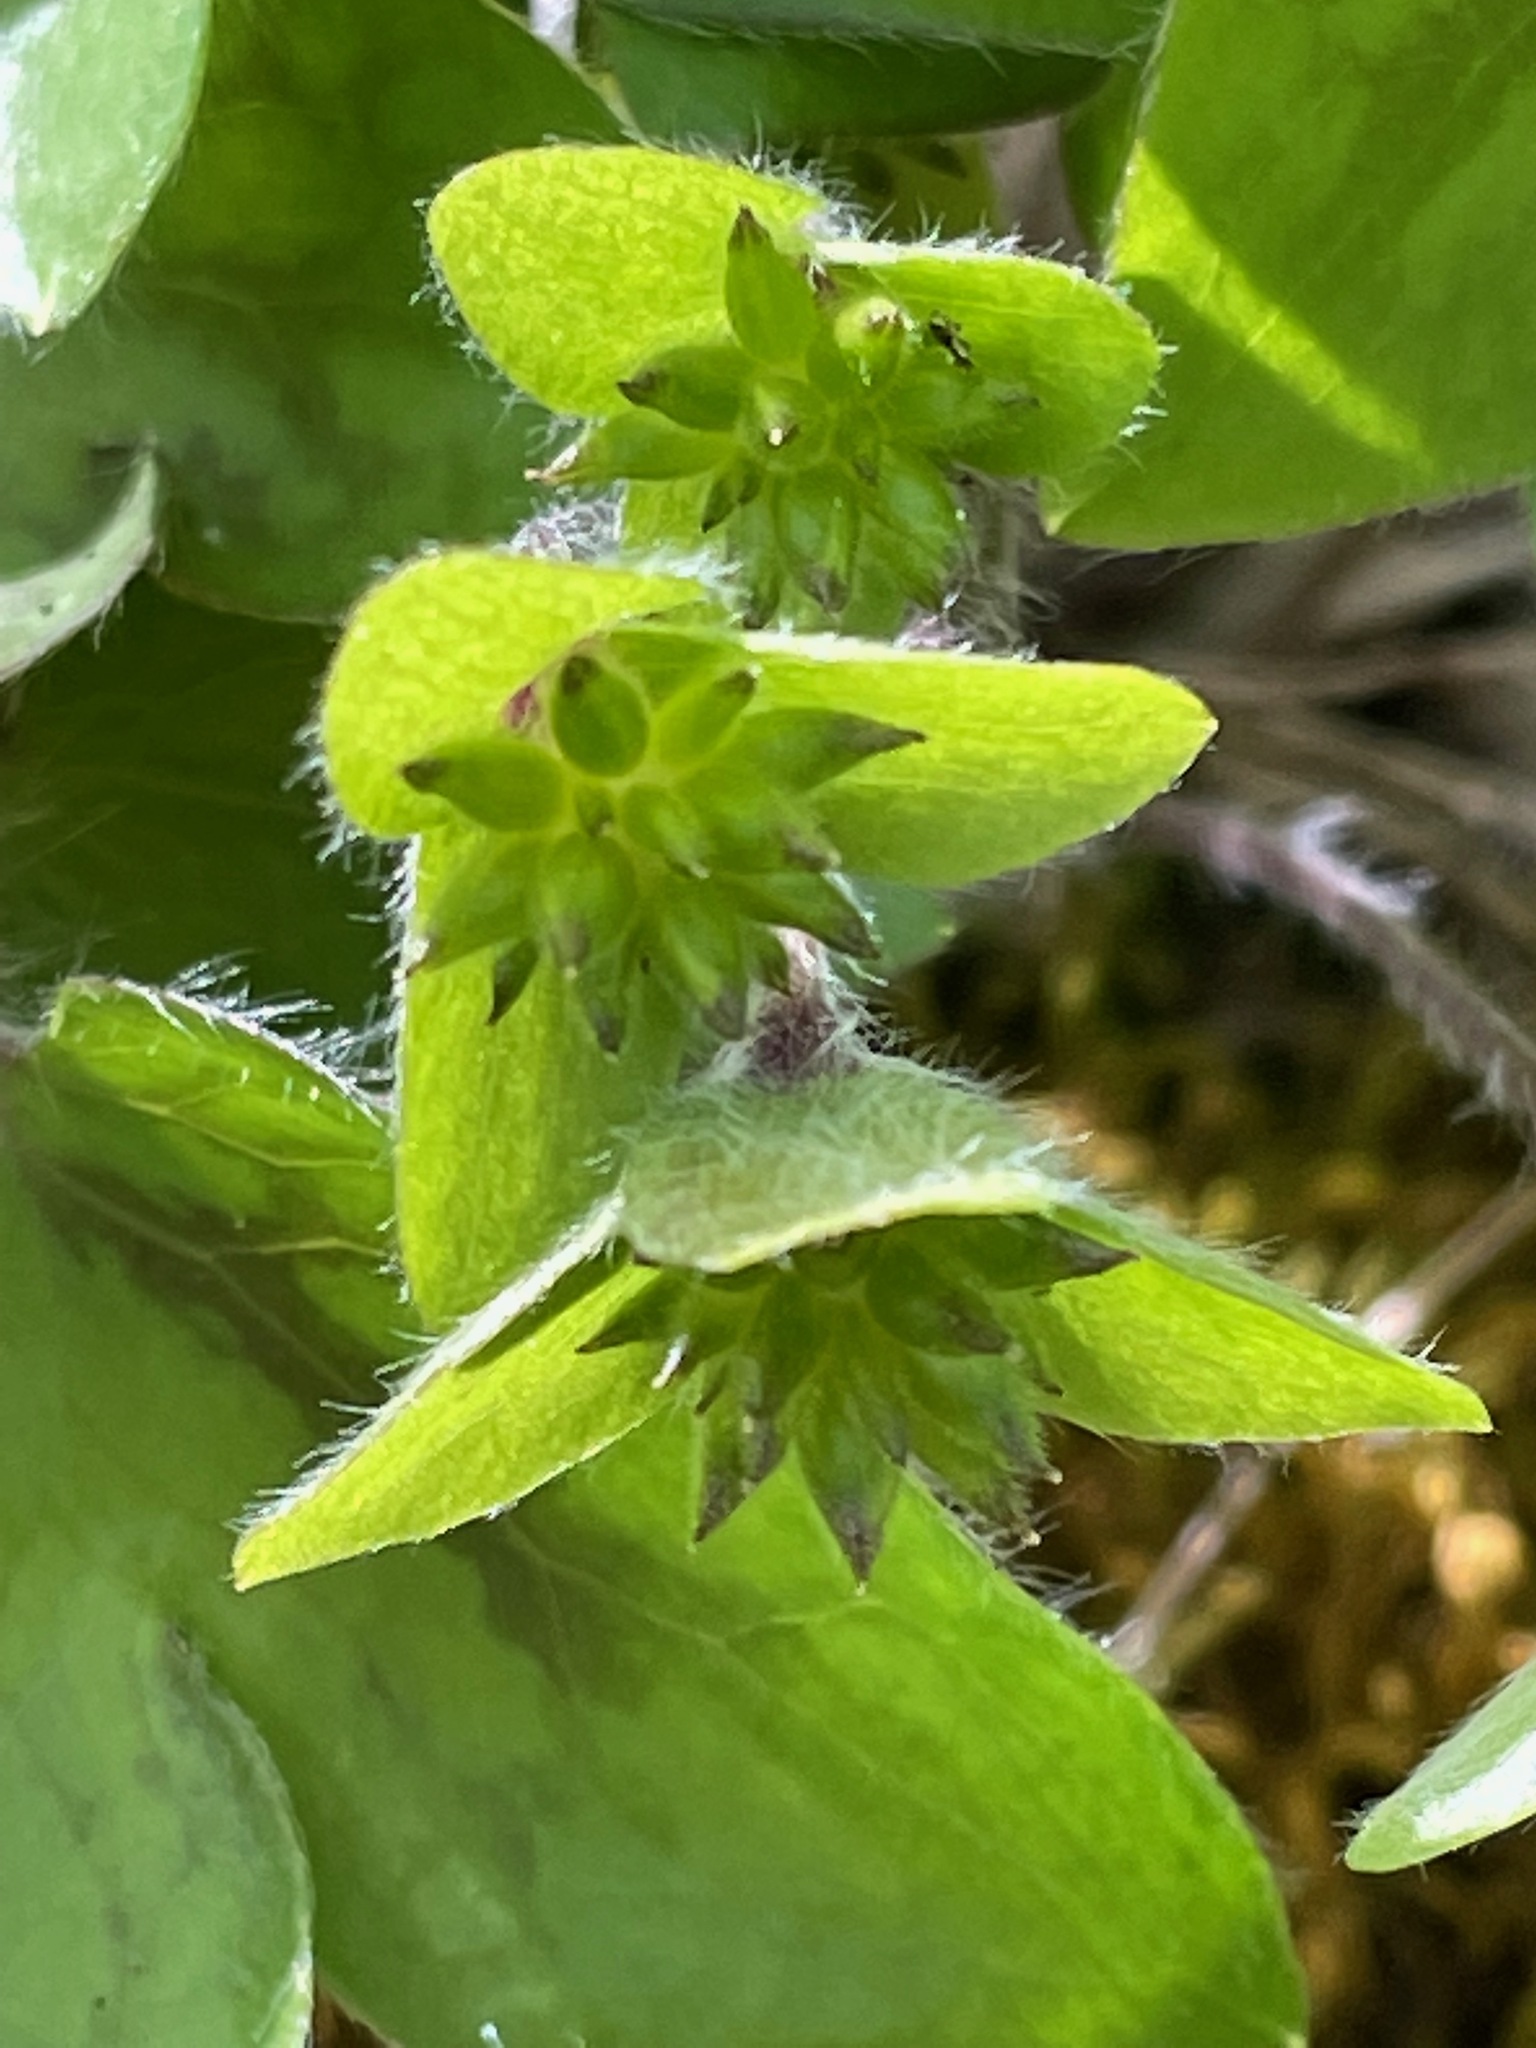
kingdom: Plantae
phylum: Tracheophyta
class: Magnoliopsida
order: Ranunculales
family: Ranunculaceae
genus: Hepatica
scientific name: Hepatica acutiloba
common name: Sharp-lobed hepatica
